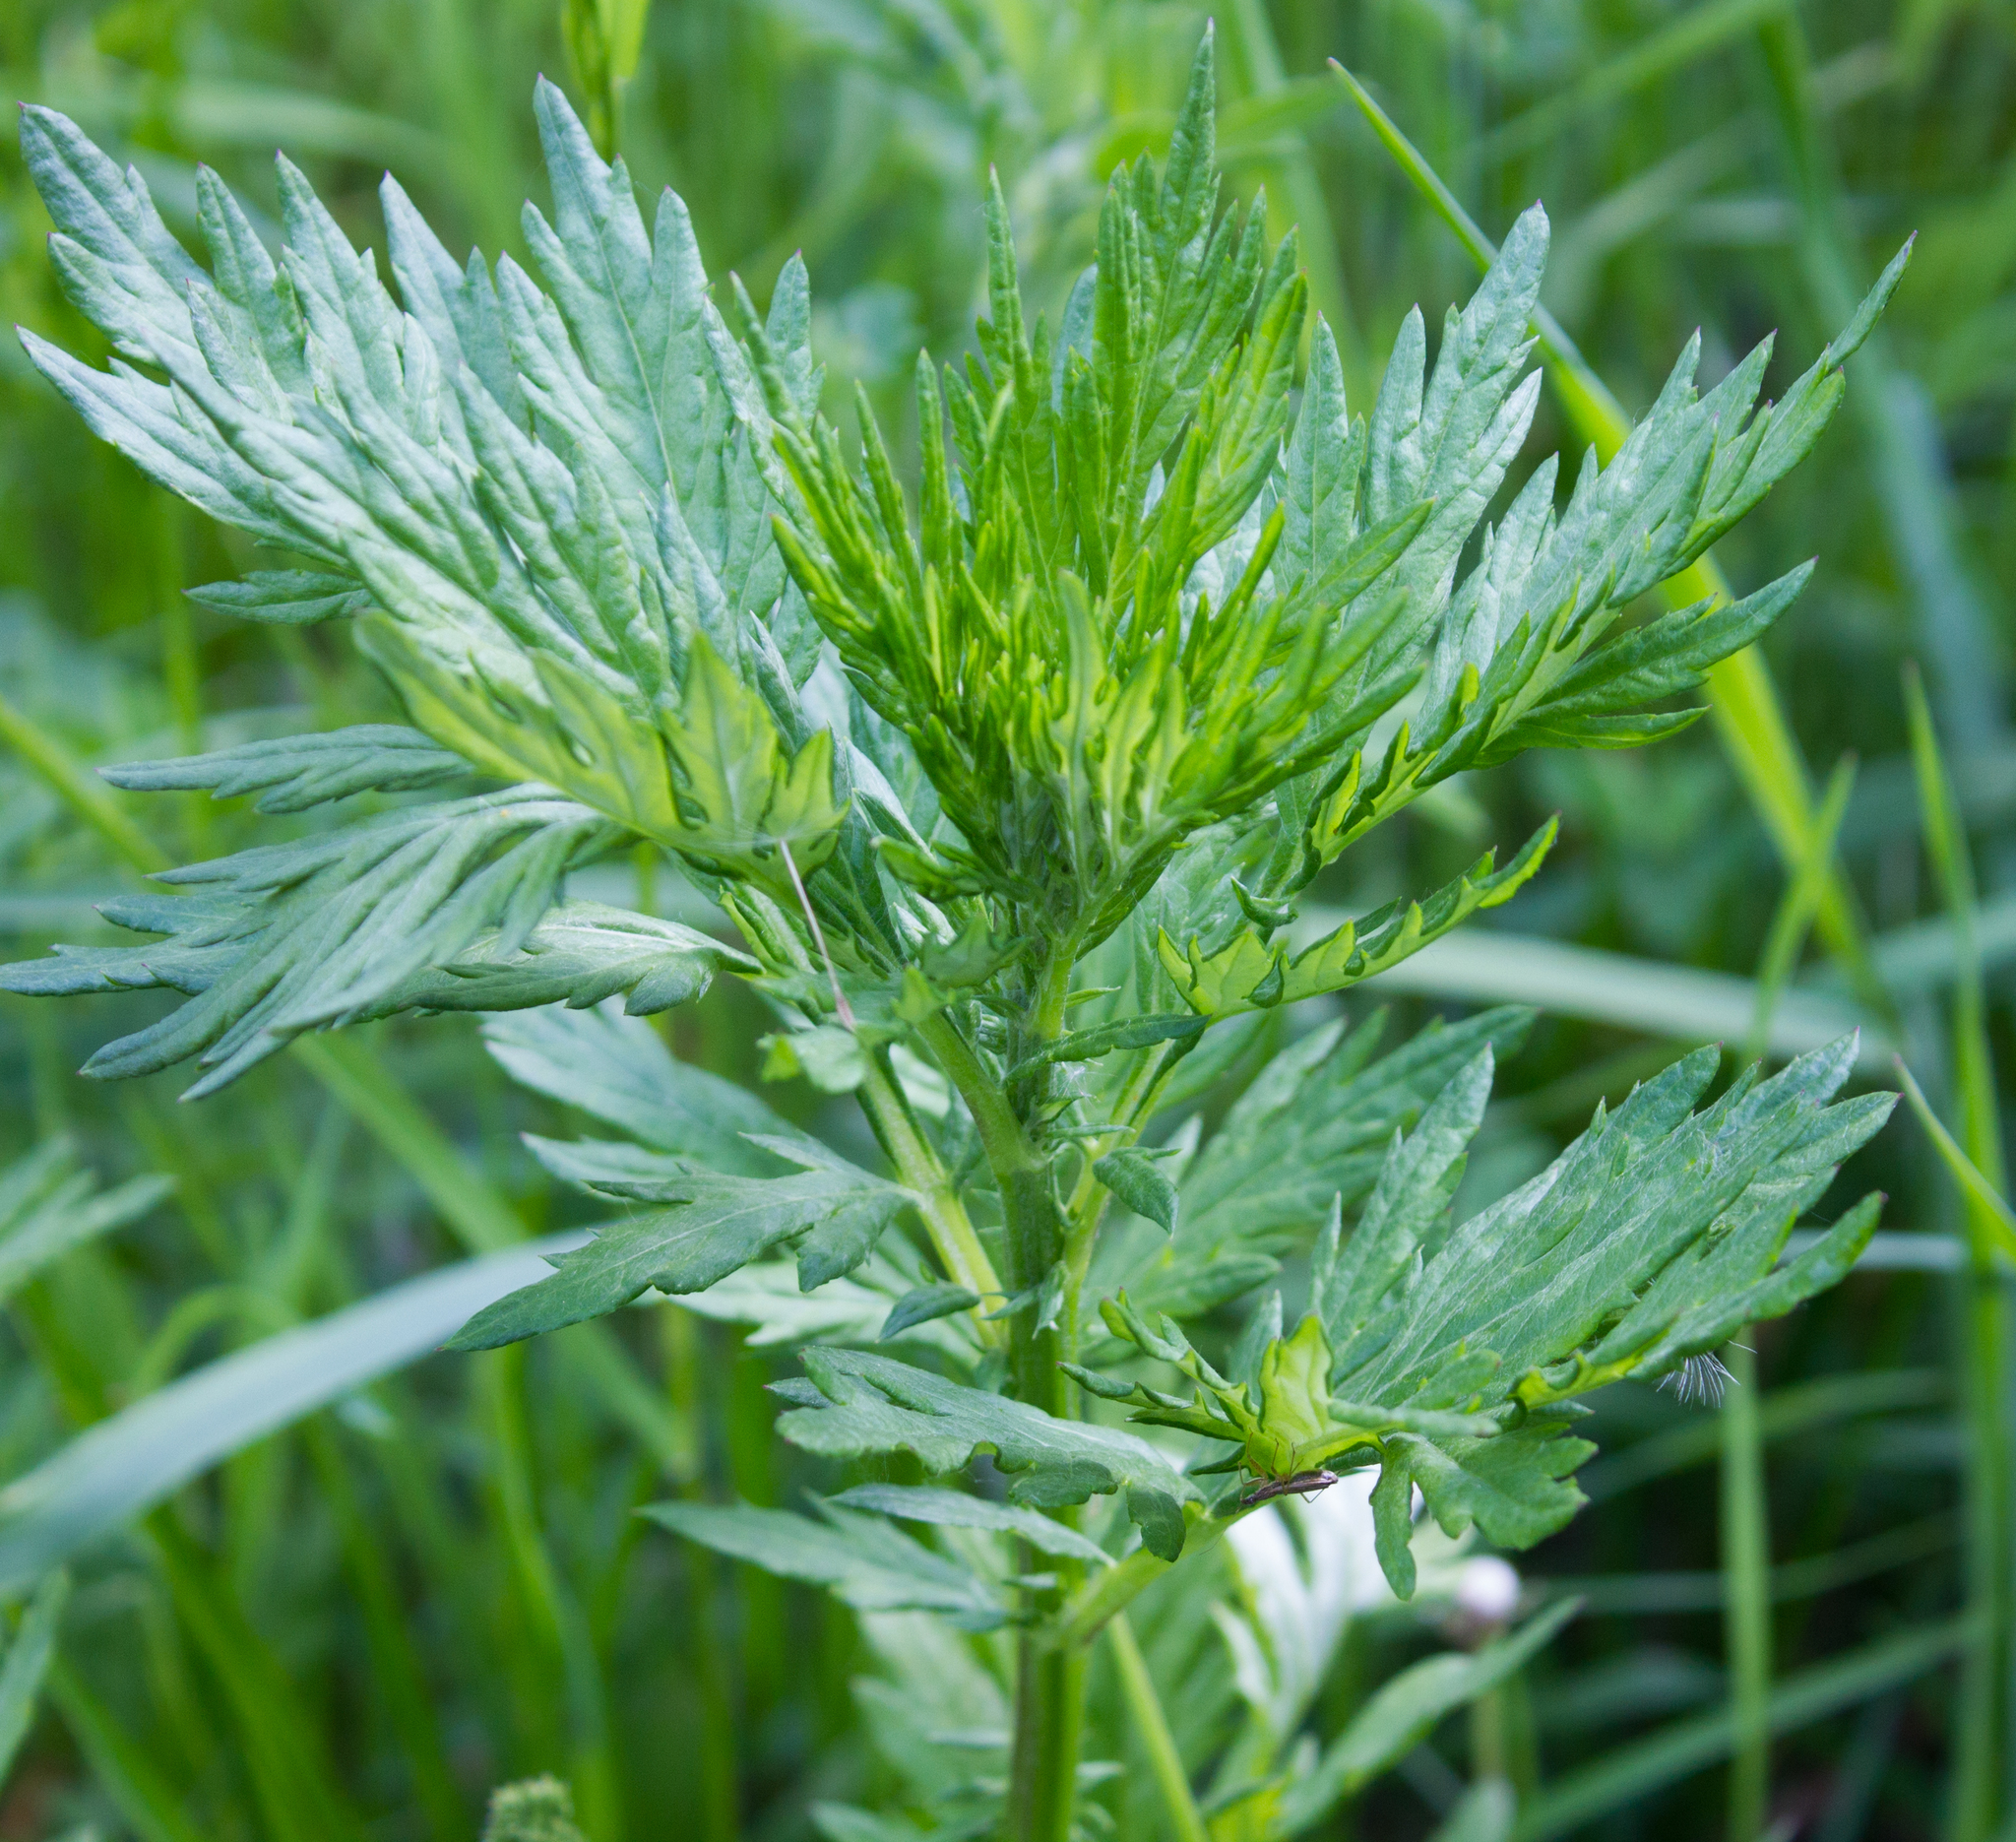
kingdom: Plantae
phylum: Tracheophyta
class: Magnoliopsida
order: Asterales
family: Asteraceae
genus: Artemisia
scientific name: Artemisia vulgaris
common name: Mugwort
